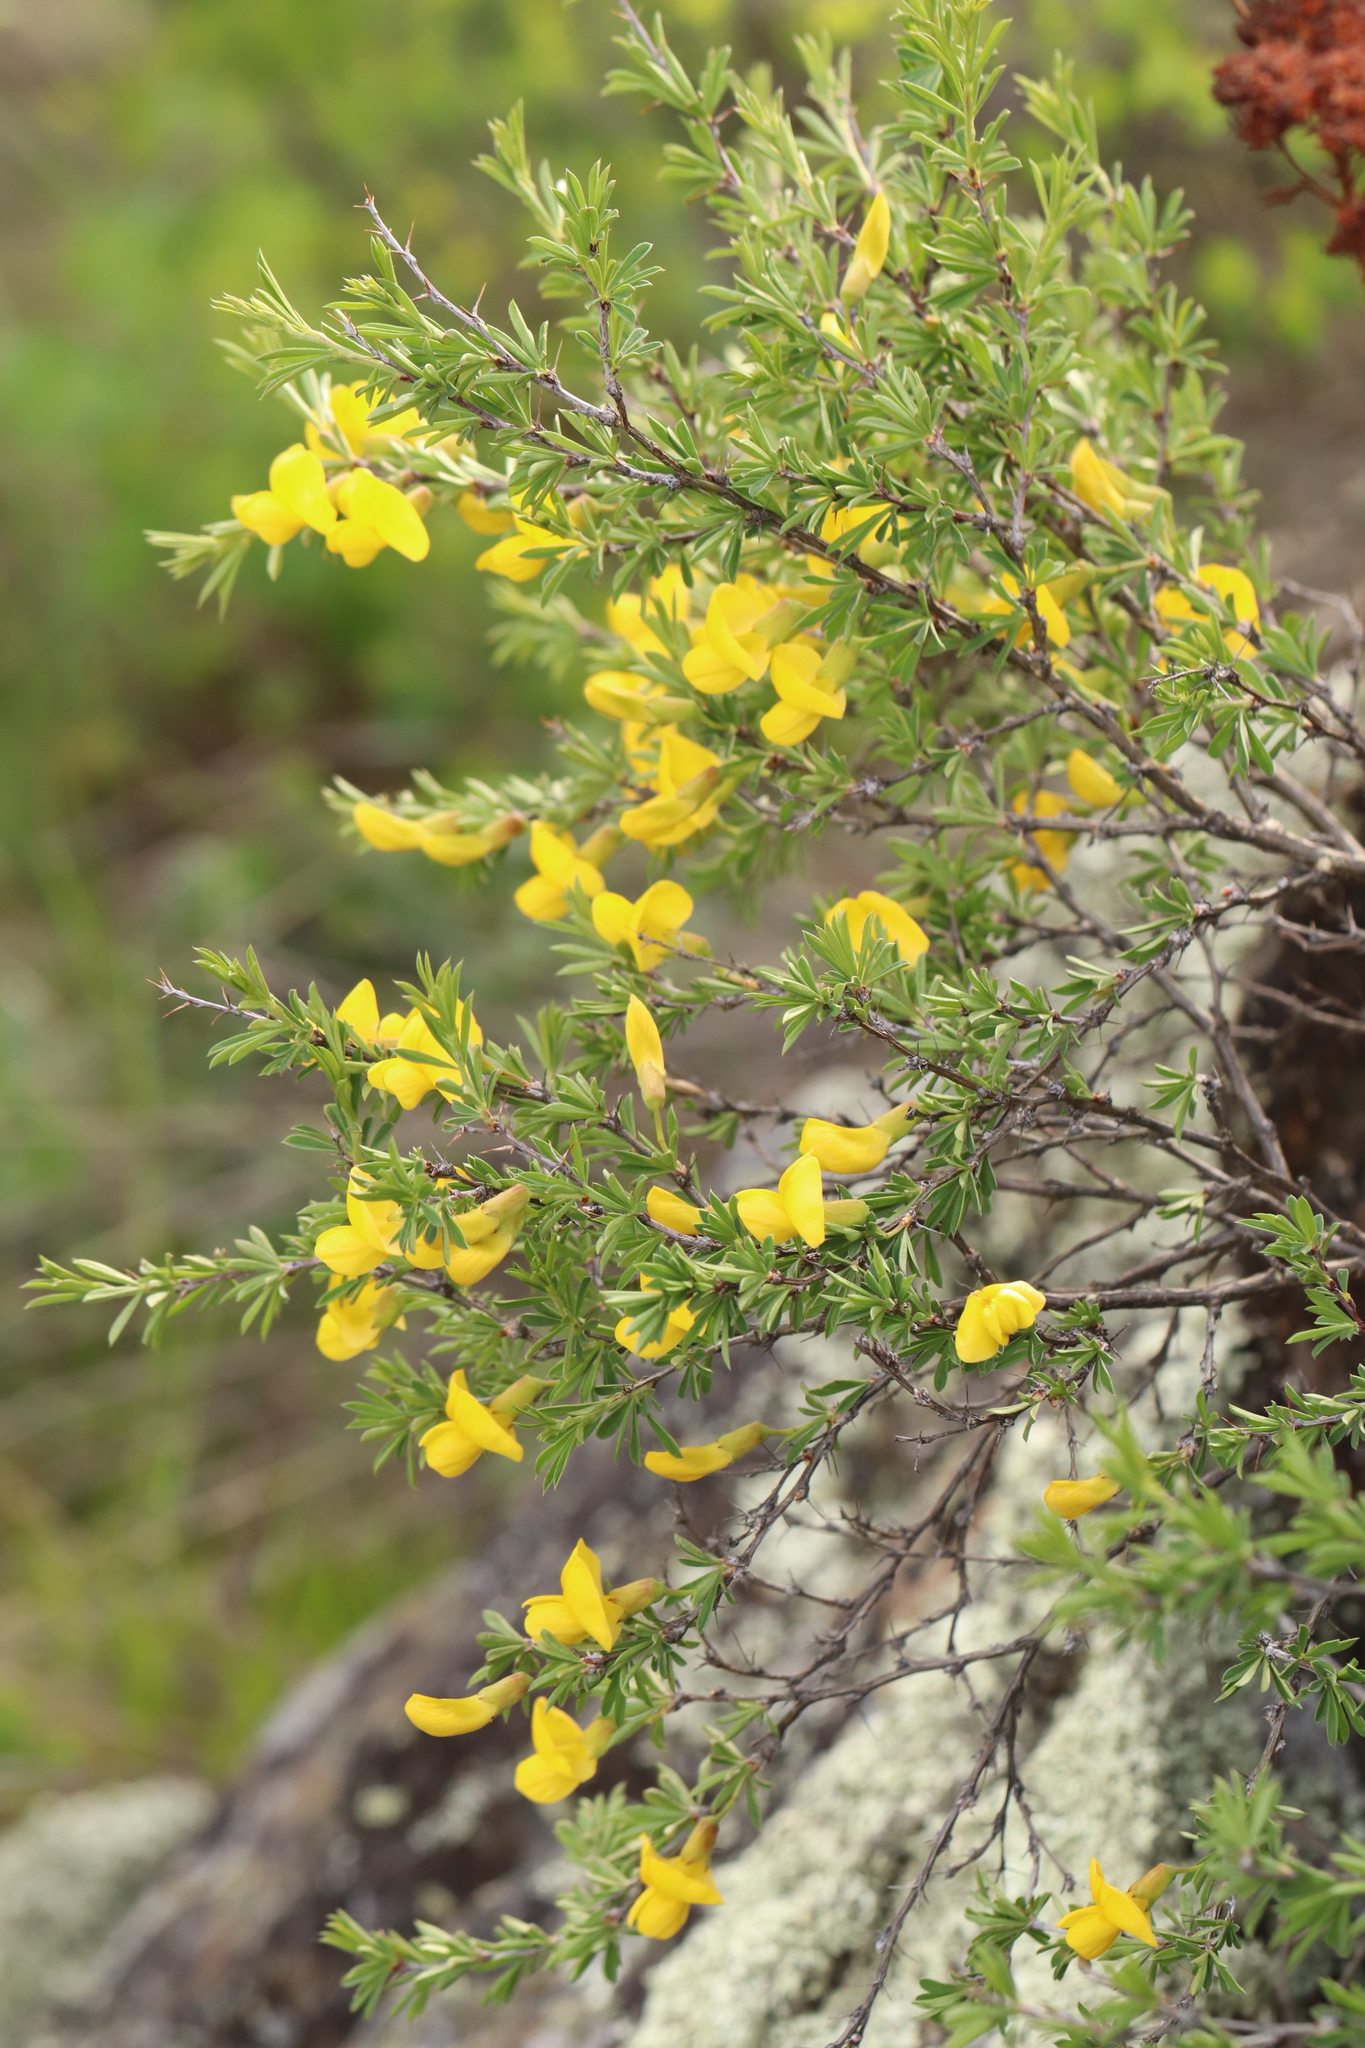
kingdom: Plantae
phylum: Tracheophyta
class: Magnoliopsida
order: Fabales
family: Fabaceae
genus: Caragana
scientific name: Caragana pygmaea
